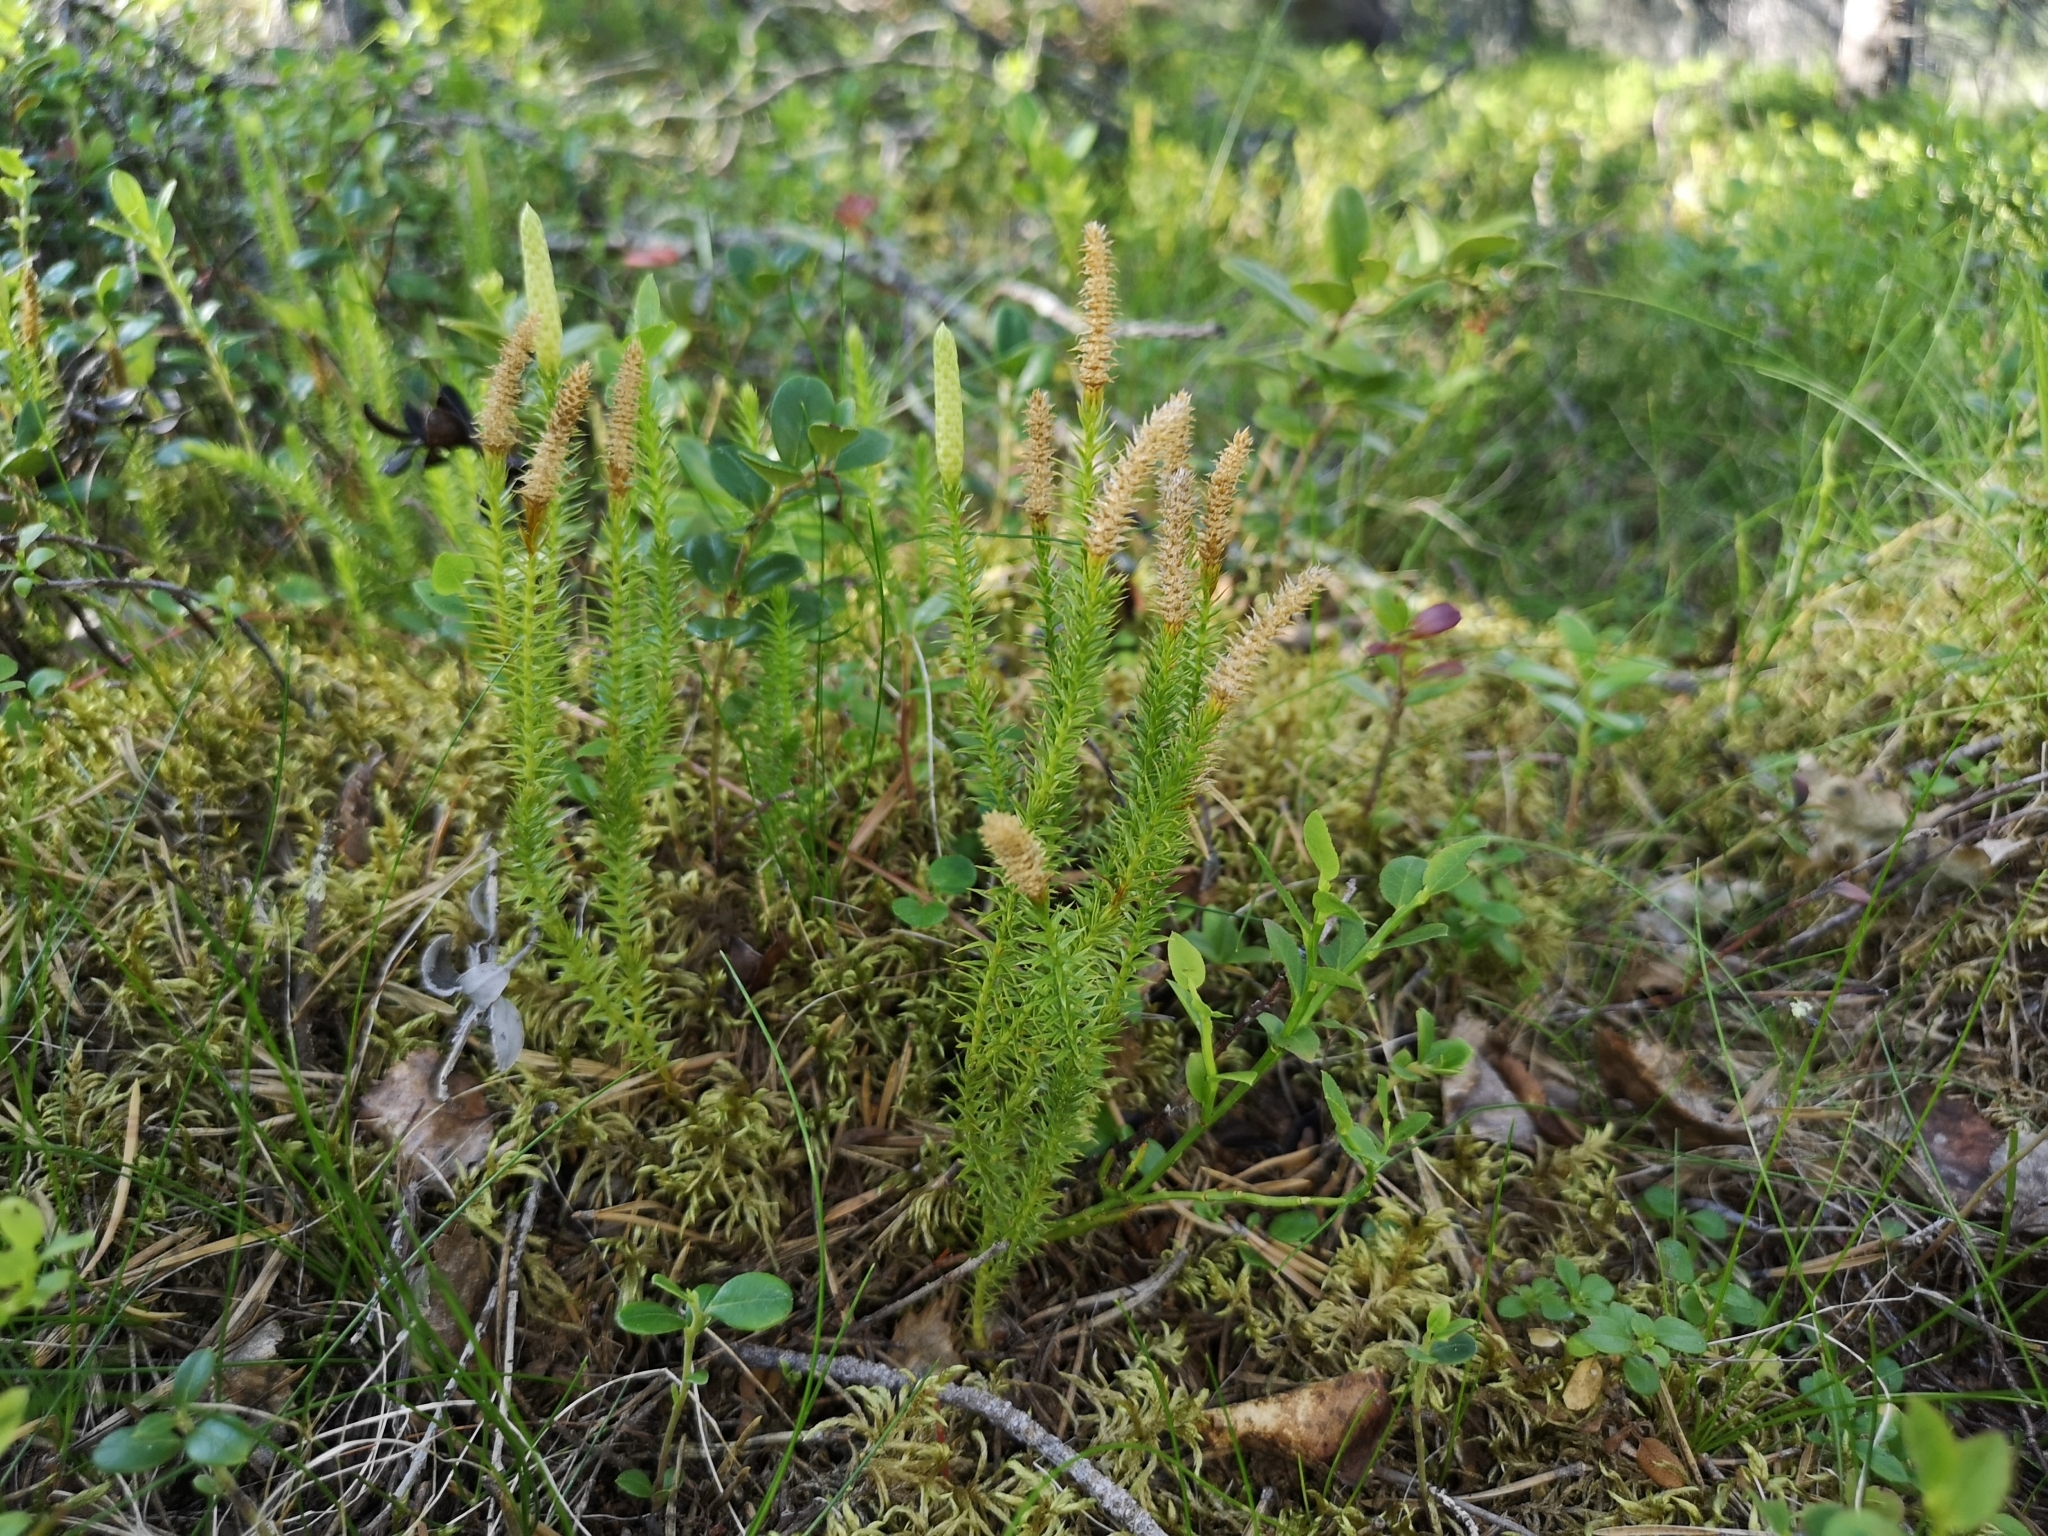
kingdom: Plantae
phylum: Tracheophyta
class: Lycopodiopsida
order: Lycopodiales
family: Lycopodiaceae
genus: Spinulum
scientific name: Spinulum annotinum
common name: Interrupted club-moss
